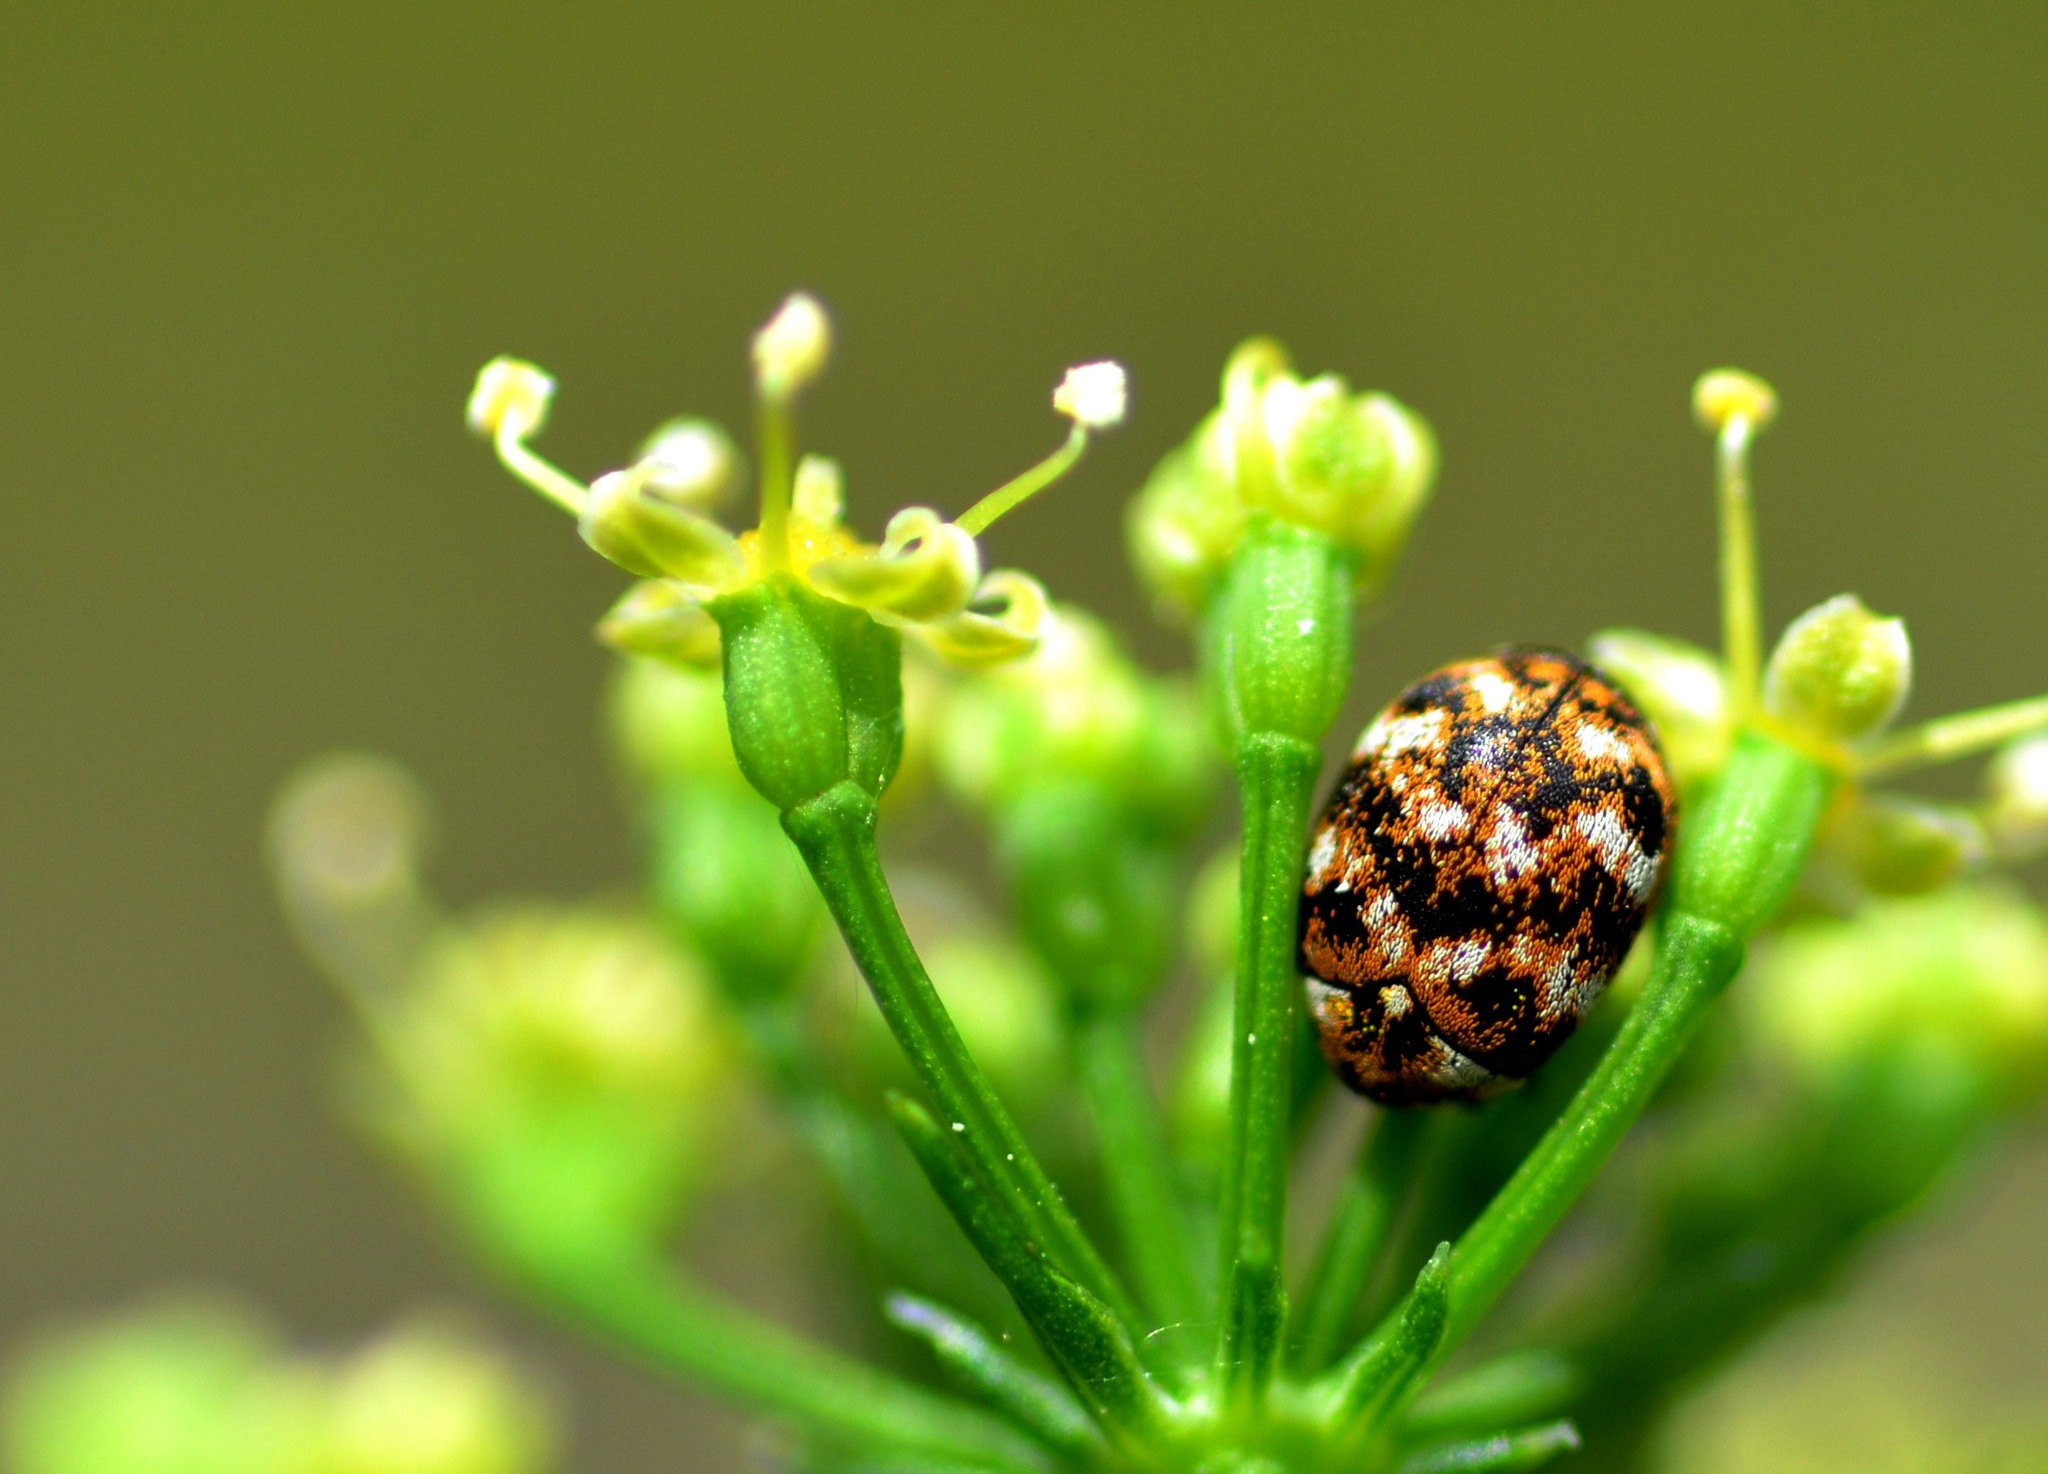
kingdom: Animalia
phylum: Arthropoda
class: Insecta
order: Coleoptera
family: Dermestidae
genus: Anthrenus
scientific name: Anthrenus verbasci
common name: Varied carpet beetle
